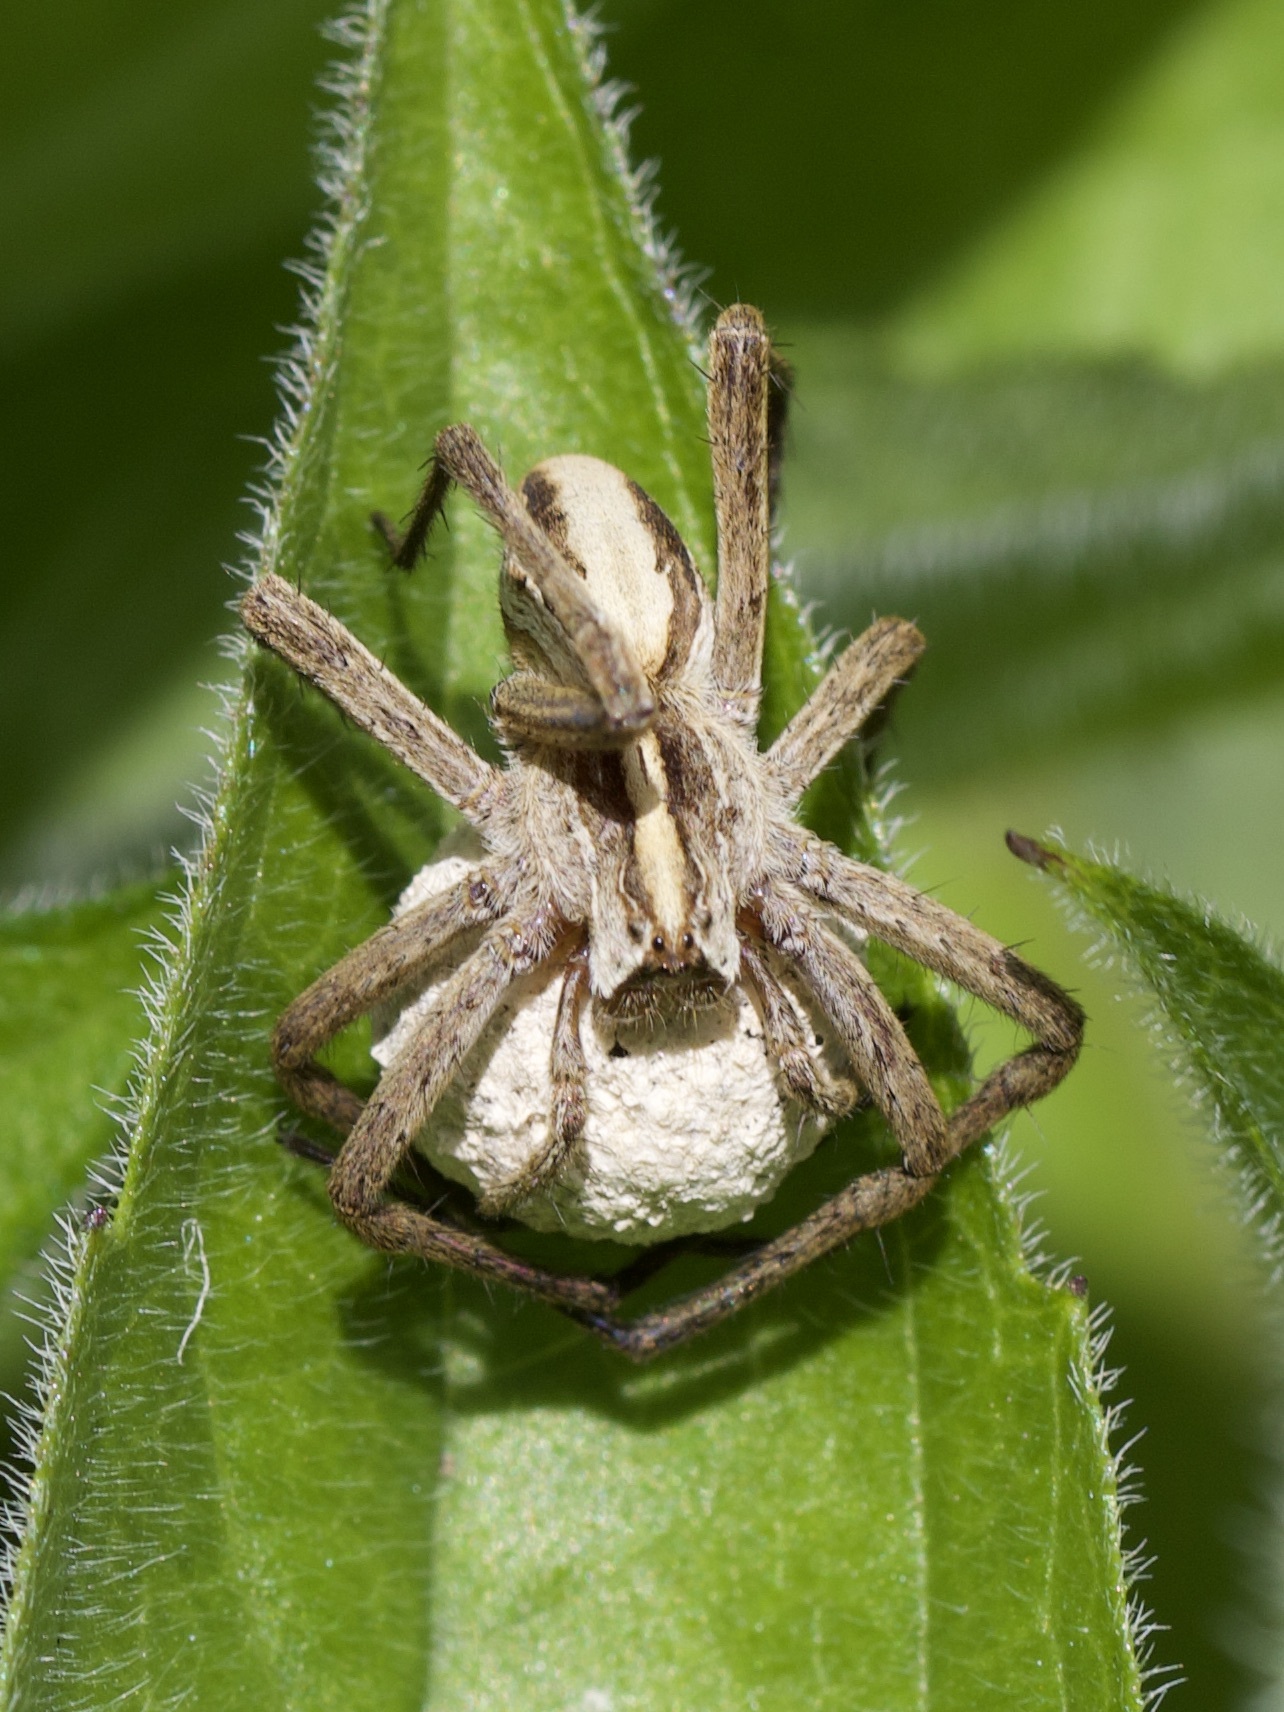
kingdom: Animalia
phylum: Arthropoda
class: Arachnida
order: Araneae
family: Pisauridae
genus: Pisaura
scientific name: Pisaura mirabilis
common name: Tent spider
